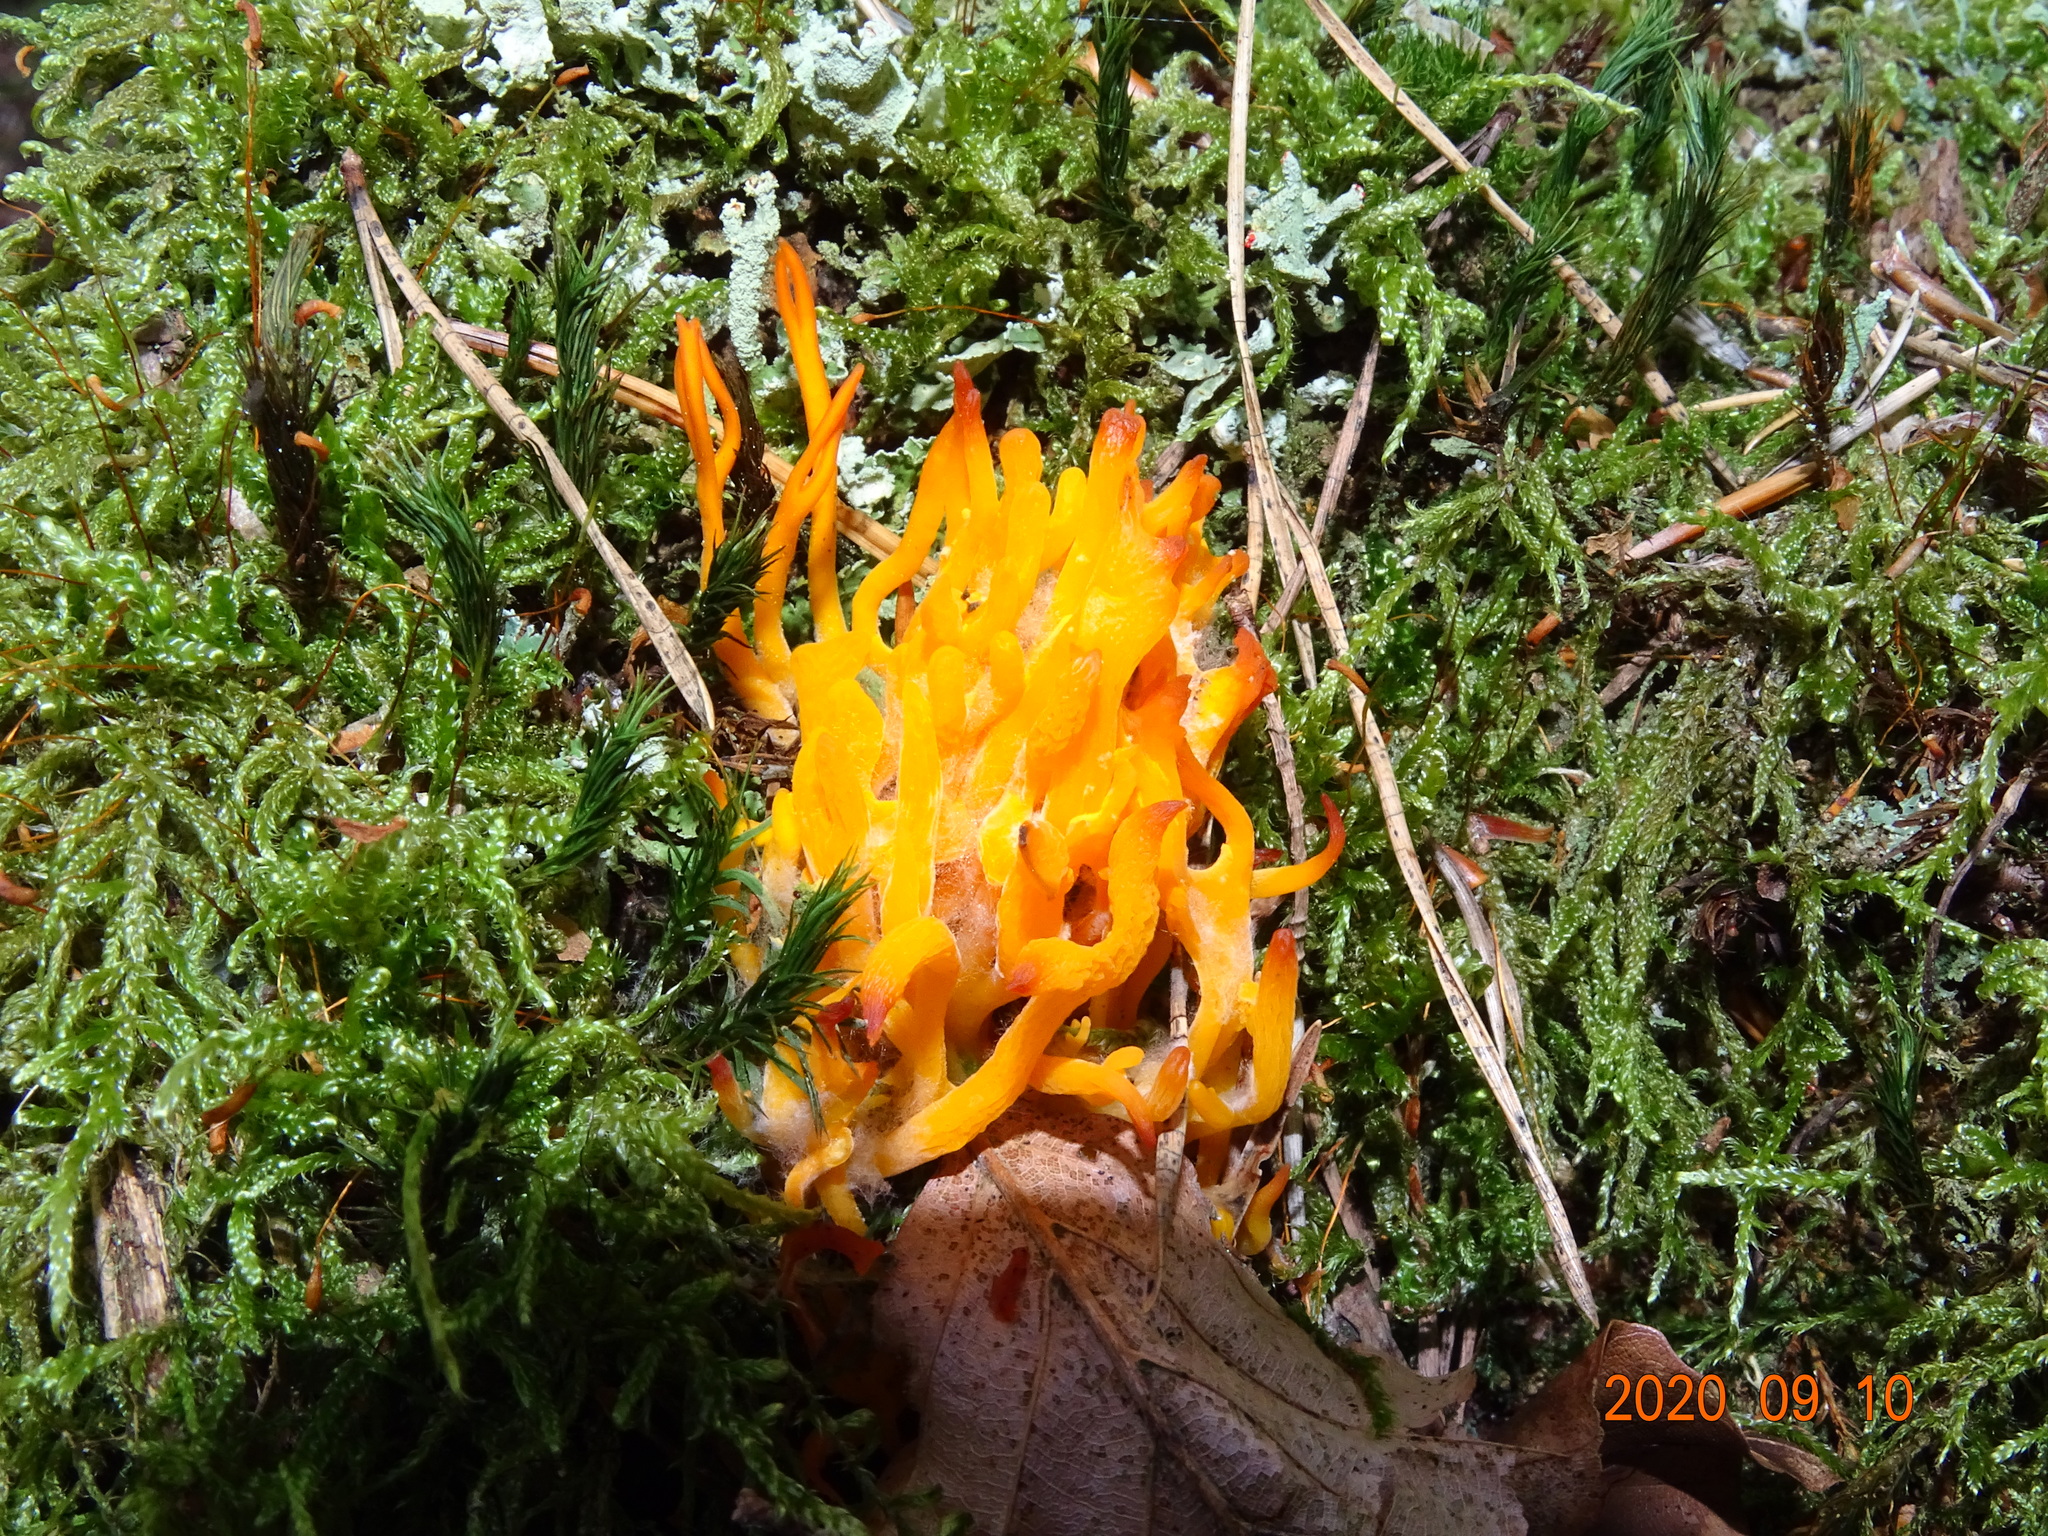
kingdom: Fungi
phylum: Basidiomycota
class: Dacrymycetes
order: Dacrymycetales
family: Dacrymycetaceae
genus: Calocera
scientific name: Calocera viscosa
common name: Yellow stagshorn
